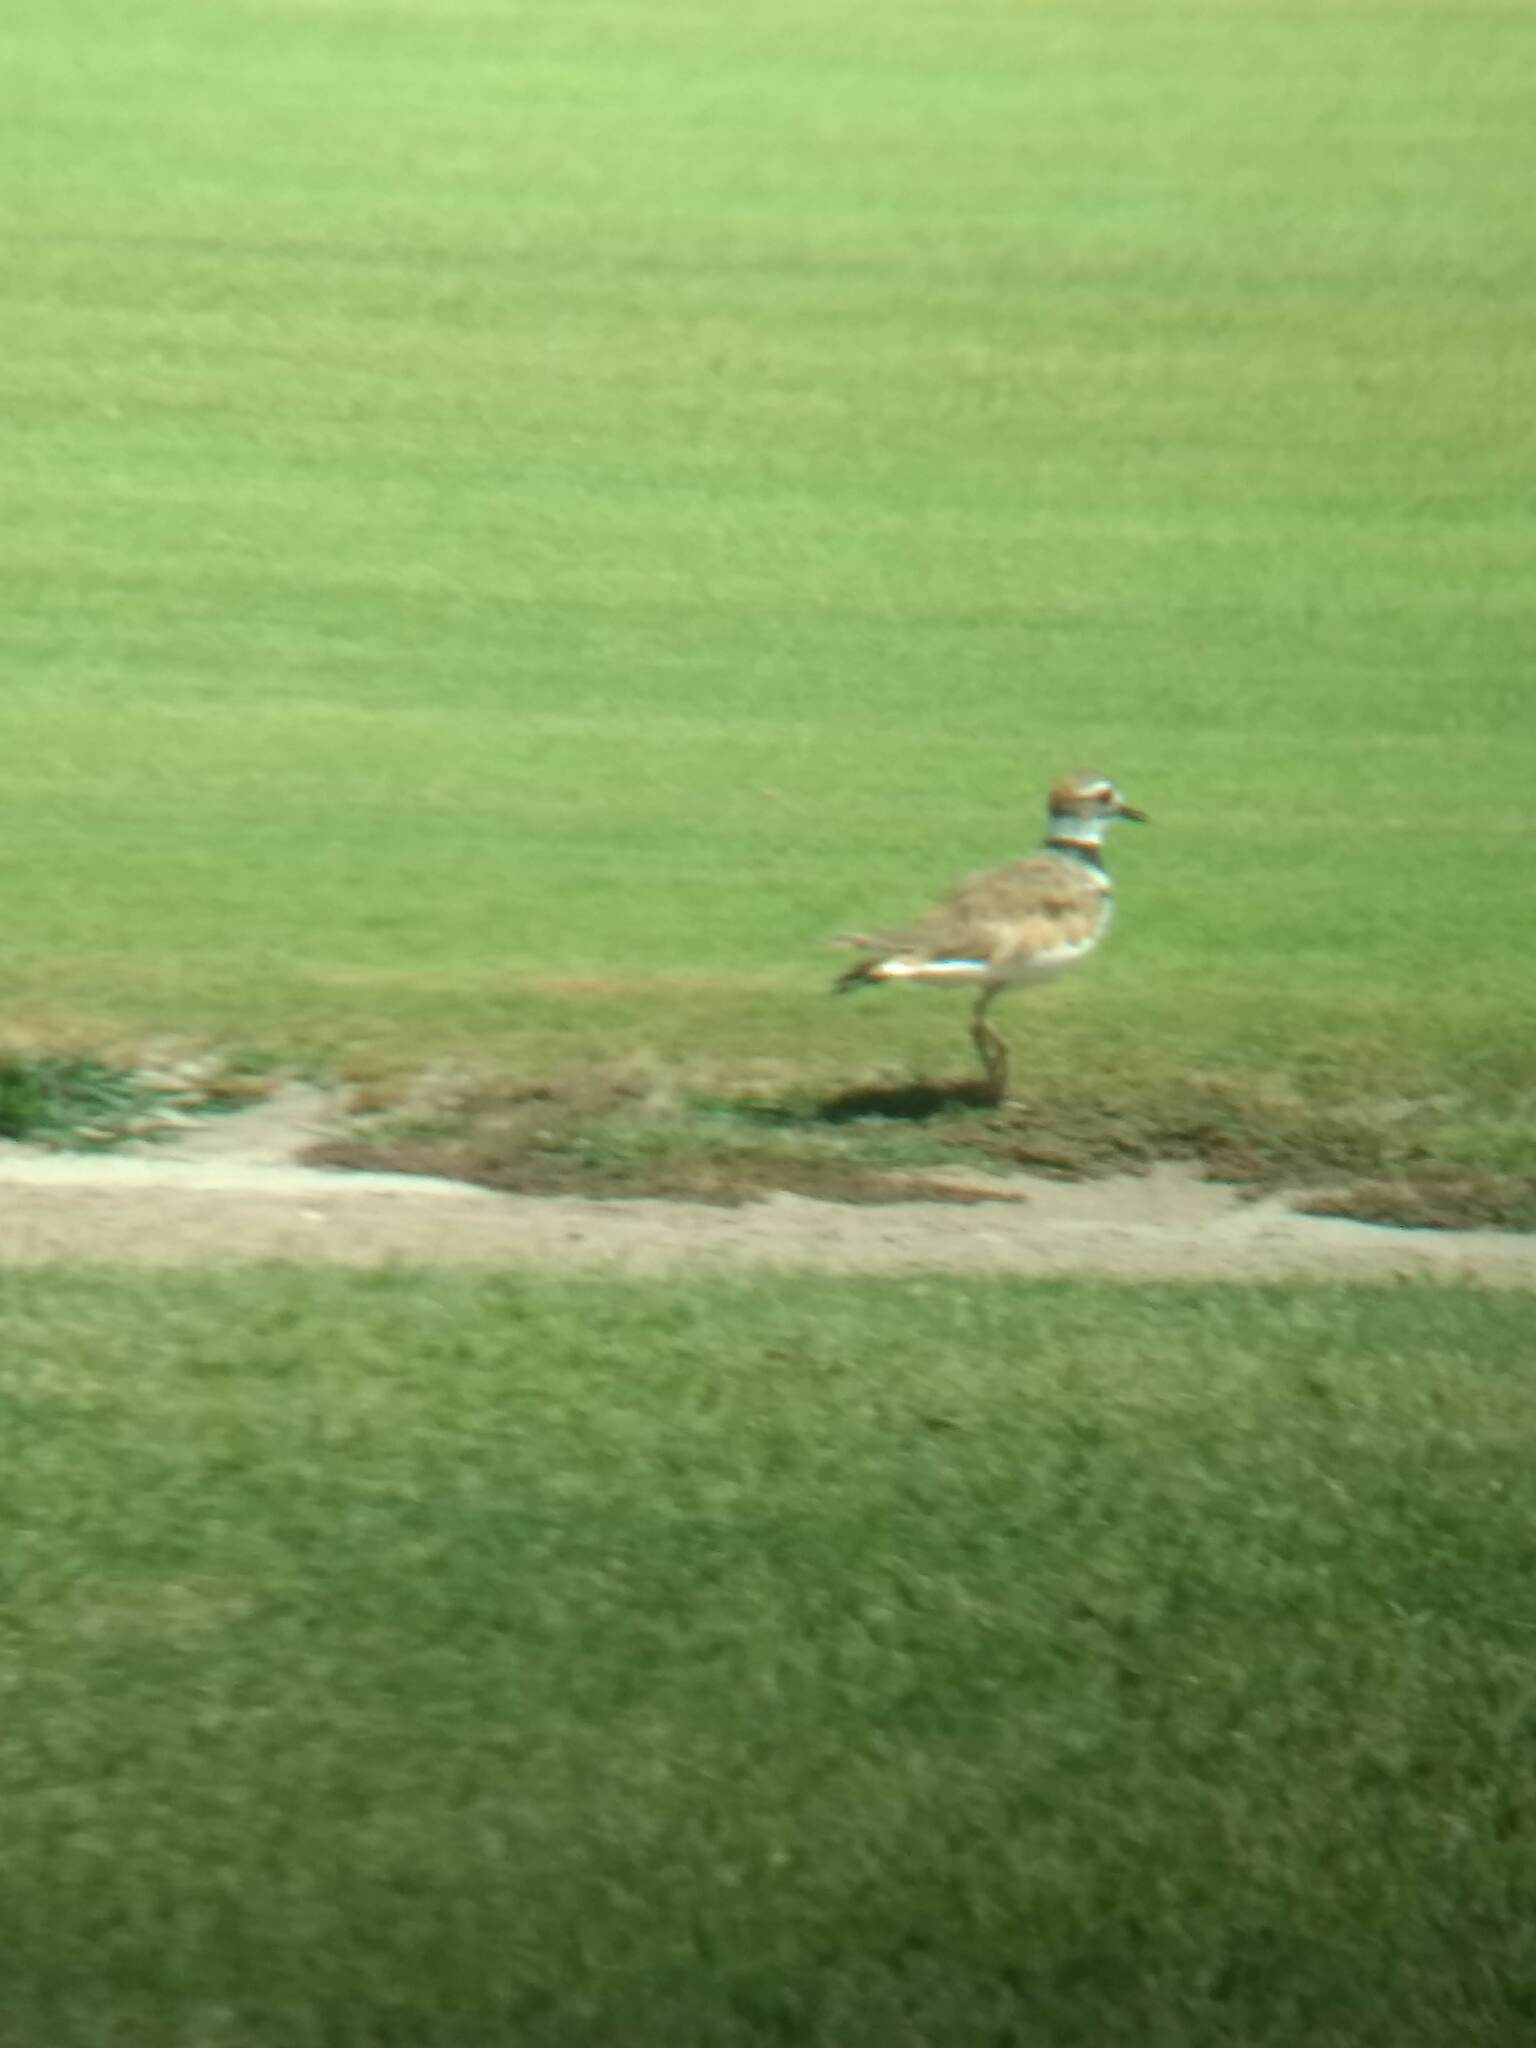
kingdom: Animalia
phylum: Chordata
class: Aves
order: Charadriiformes
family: Charadriidae
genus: Charadrius
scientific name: Charadrius vociferus
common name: Killdeer
